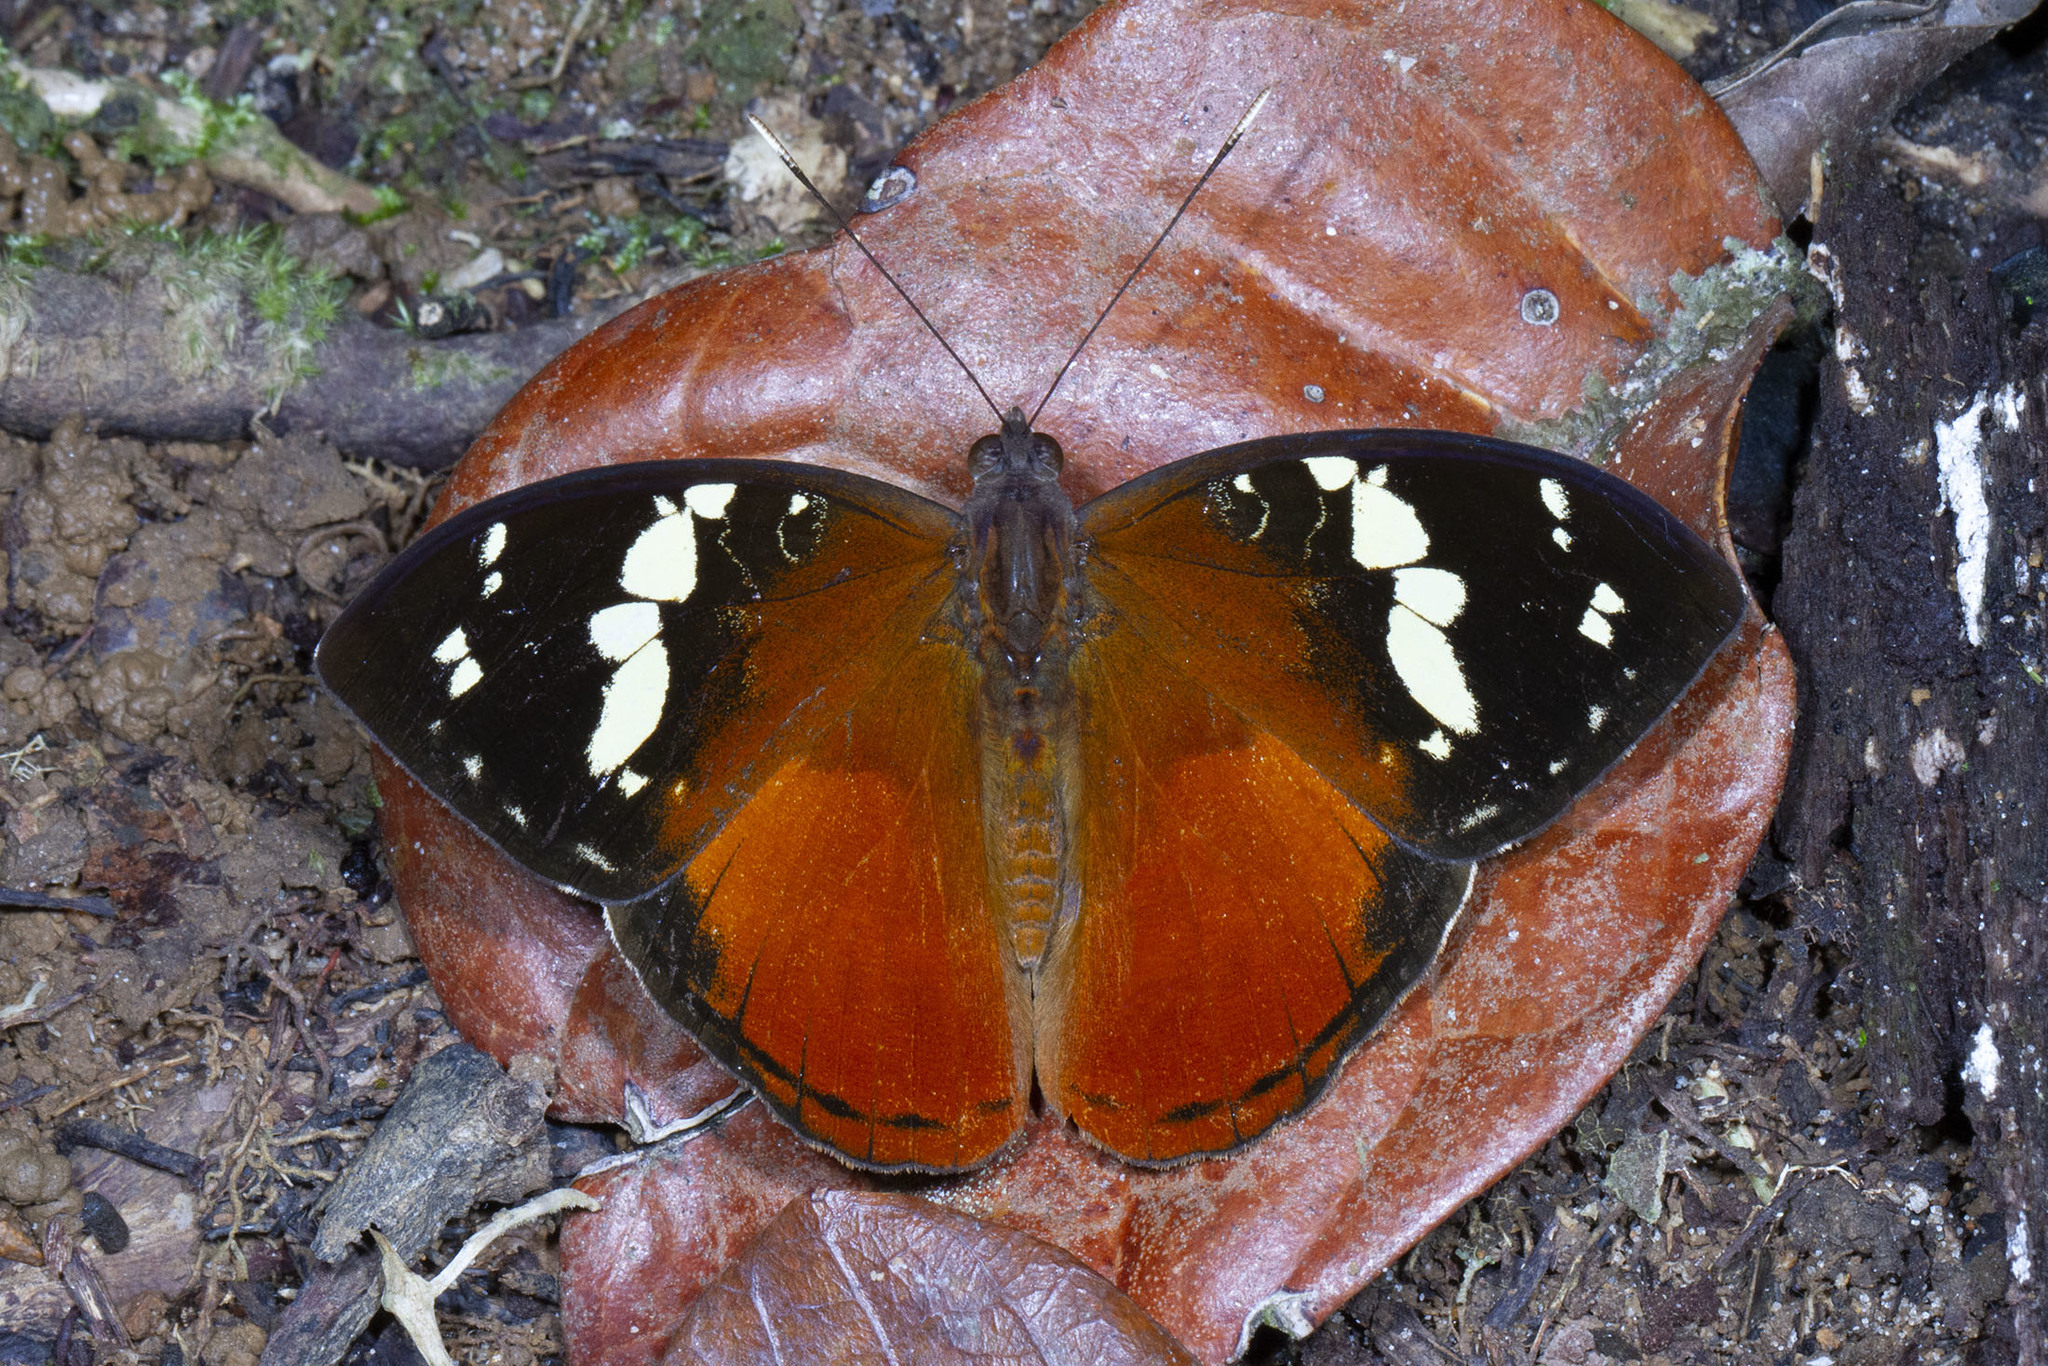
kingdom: Animalia
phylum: Arthropoda
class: Insecta
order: Lepidoptera
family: Nymphalidae
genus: Aterica
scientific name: Aterica rabena
